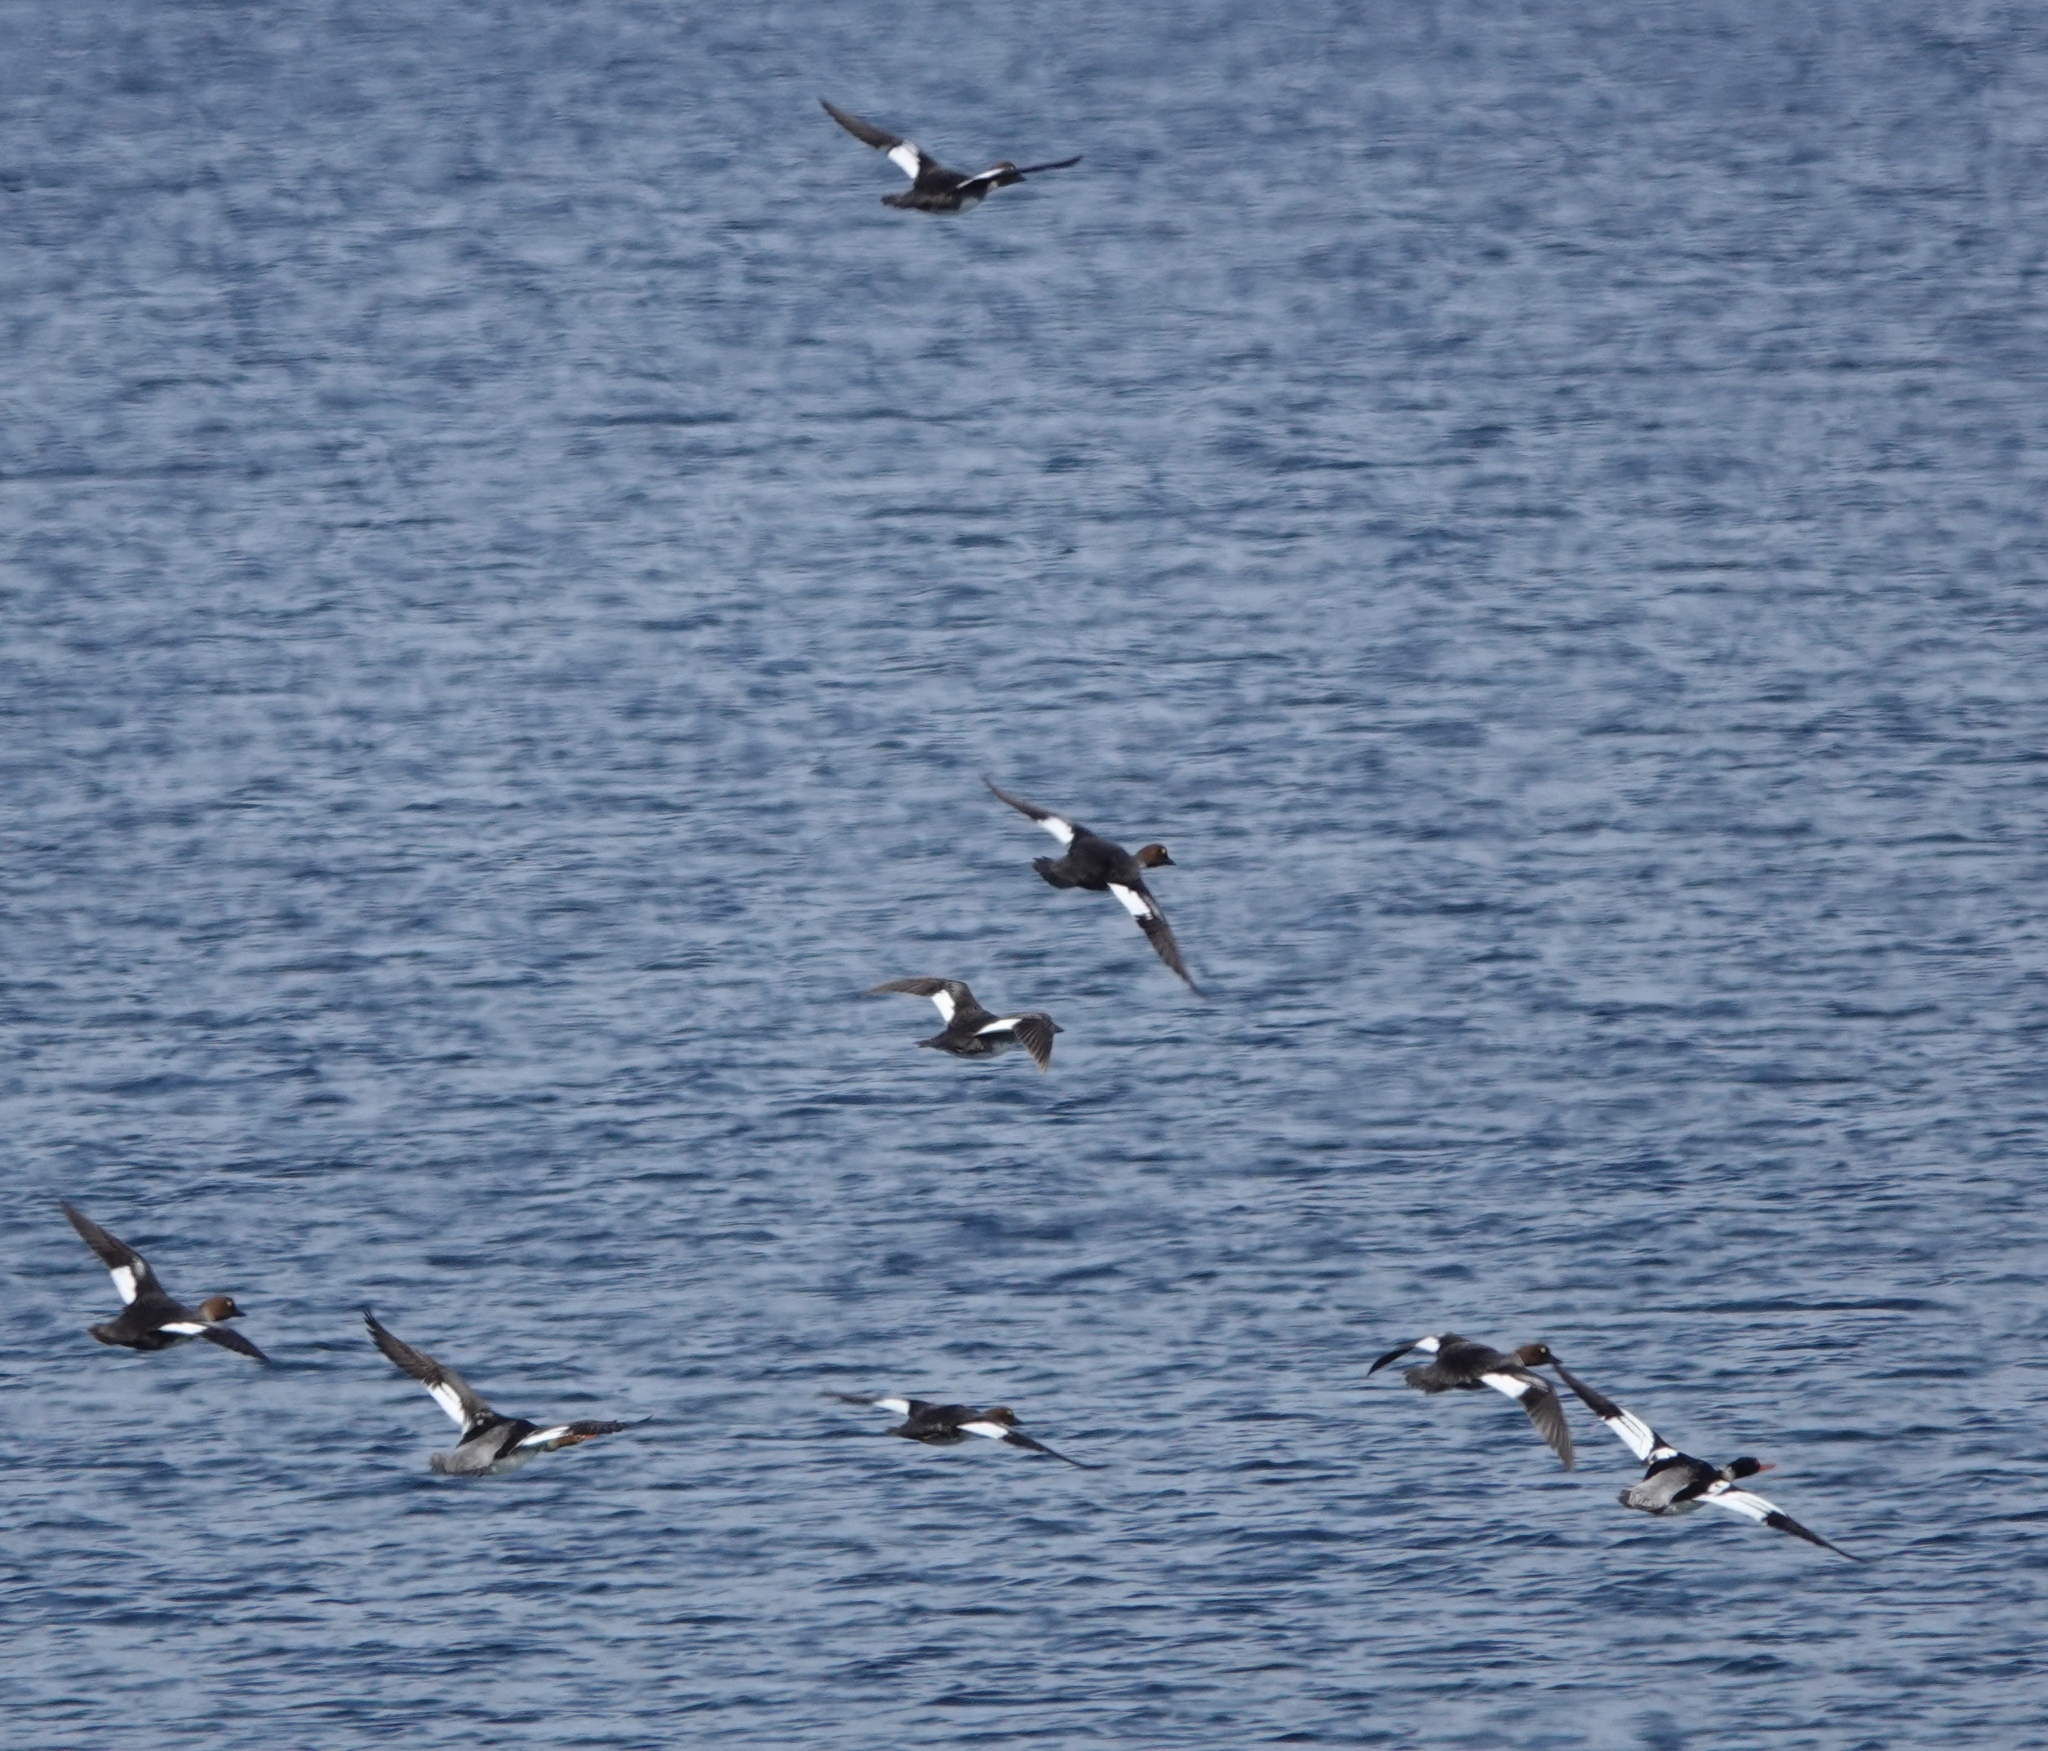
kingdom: Animalia
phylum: Chordata
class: Aves
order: Anseriformes
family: Anatidae
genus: Bucephala
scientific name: Bucephala clangula
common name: Common goldeneye
